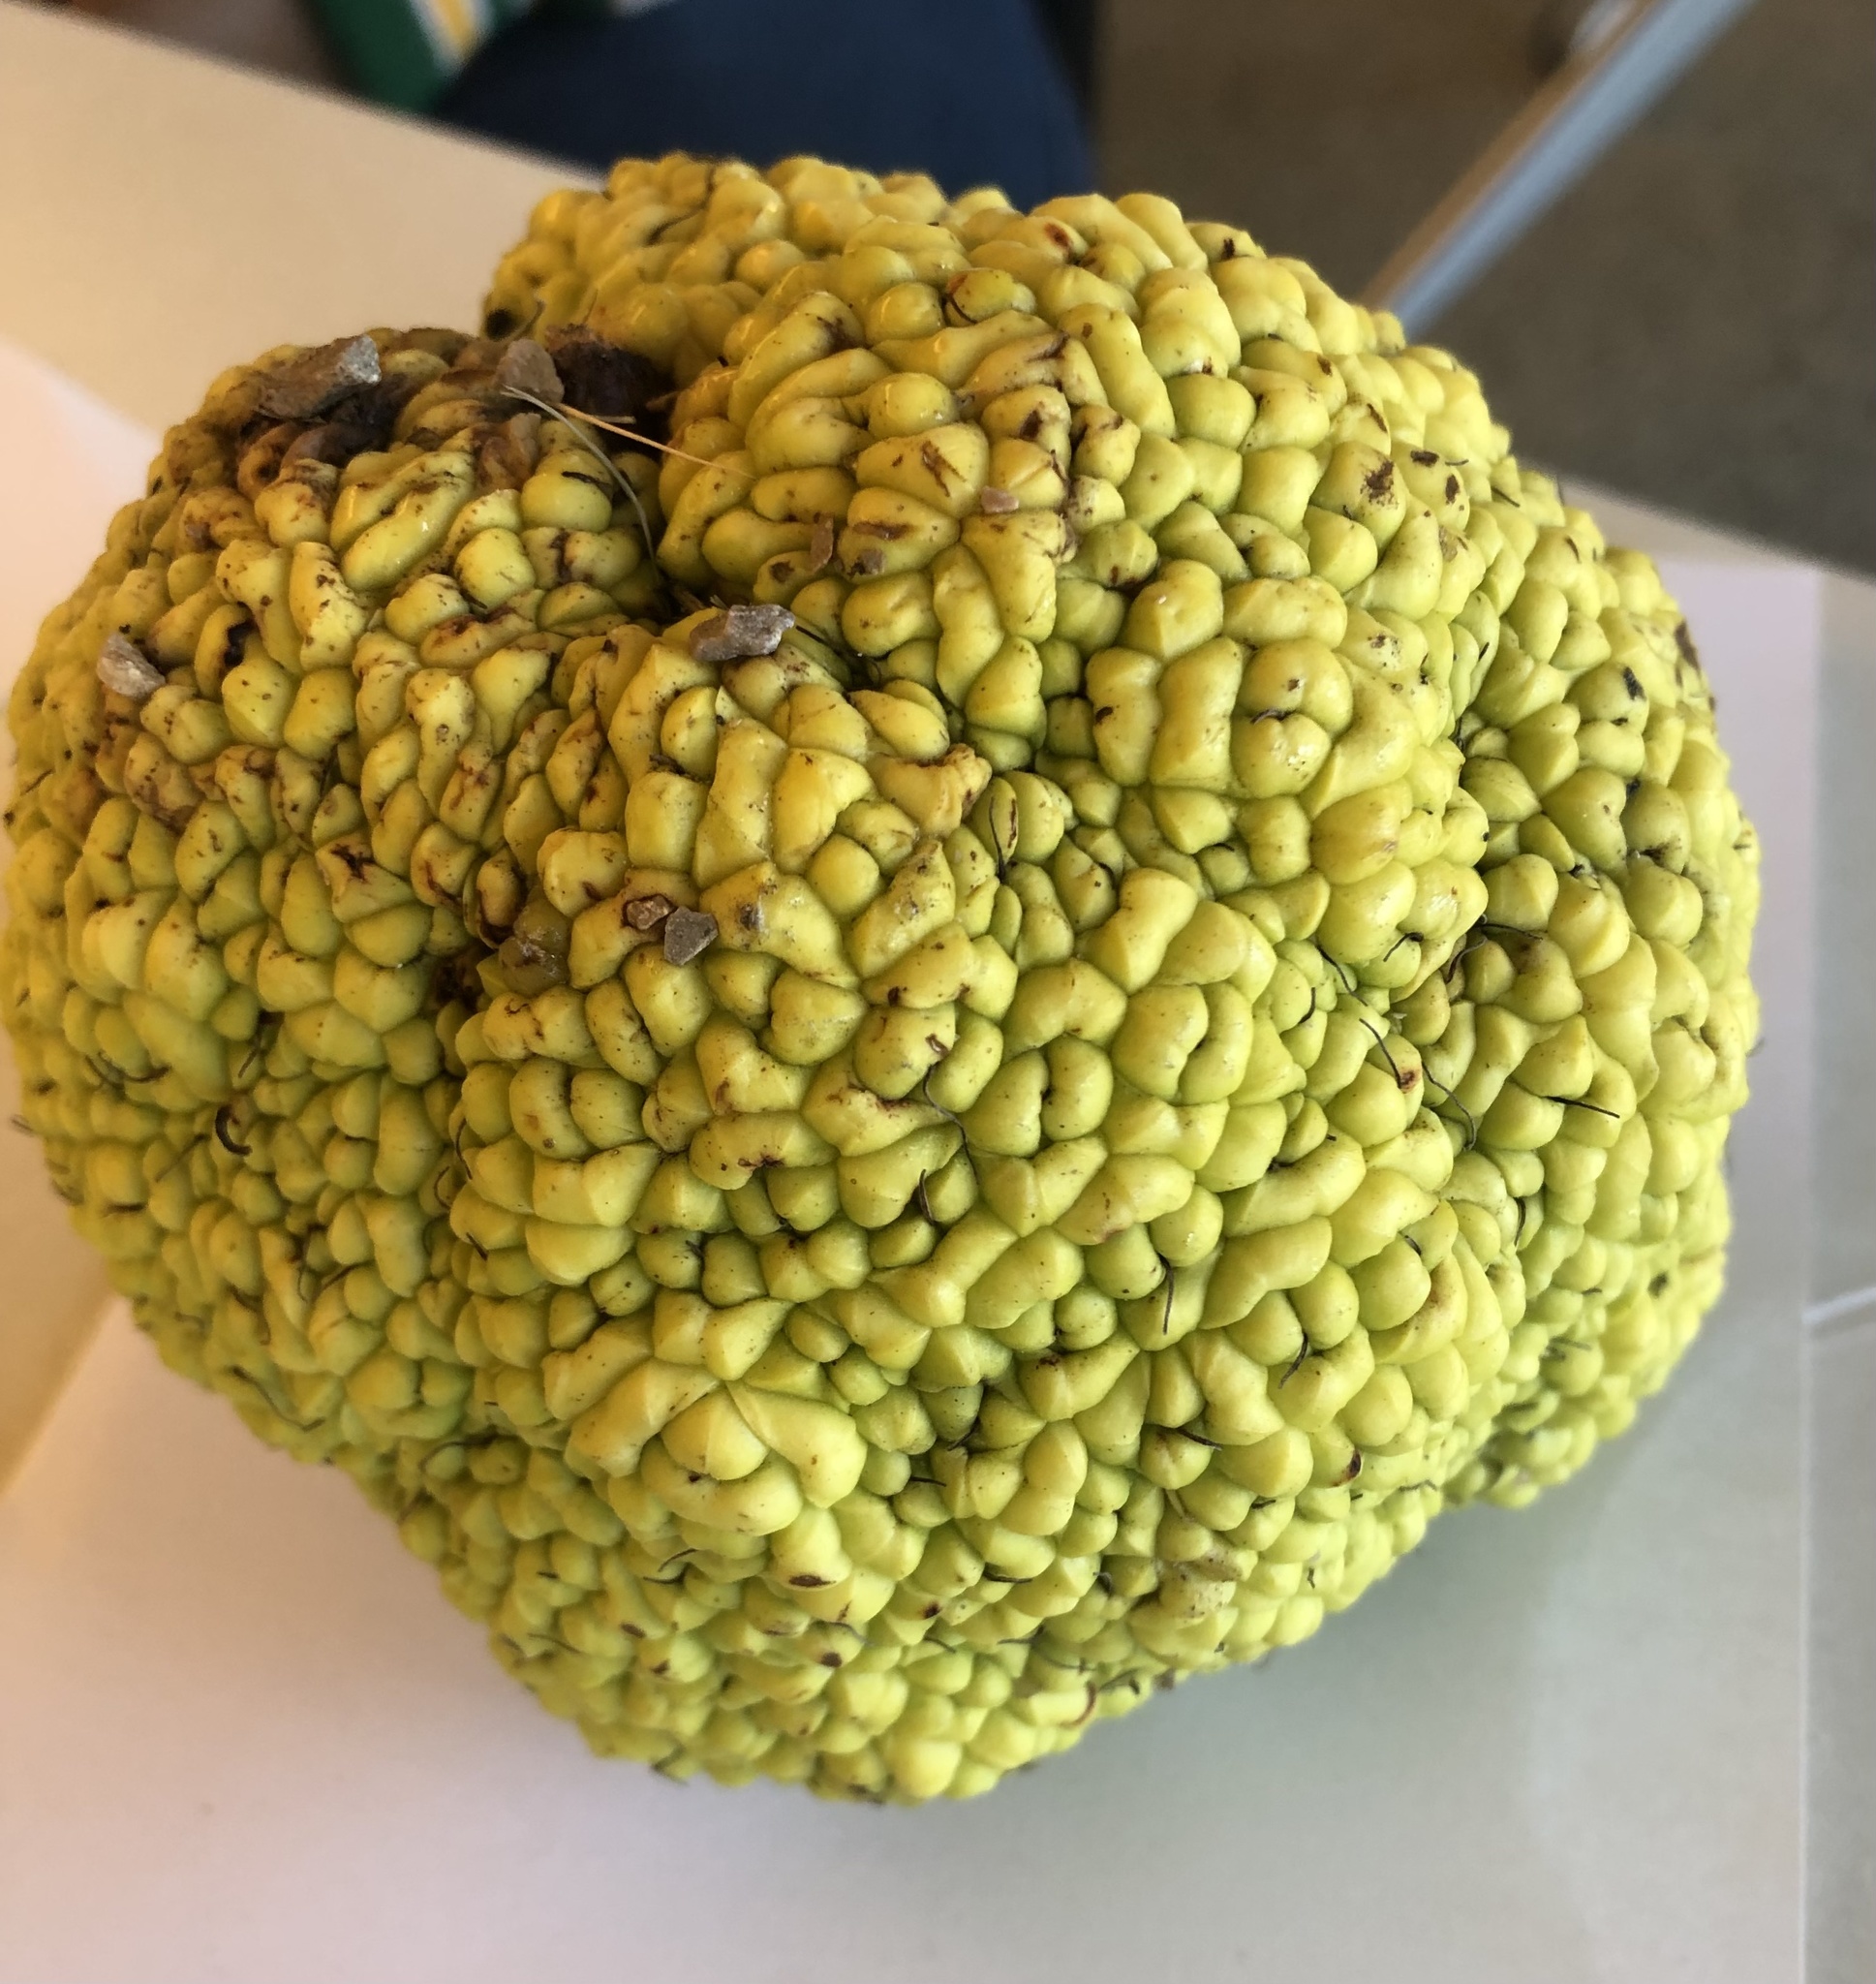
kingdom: Plantae
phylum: Tracheophyta
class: Magnoliopsida
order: Rosales
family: Moraceae
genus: Maclura
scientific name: Maclura pomifera
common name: Osage-orange
